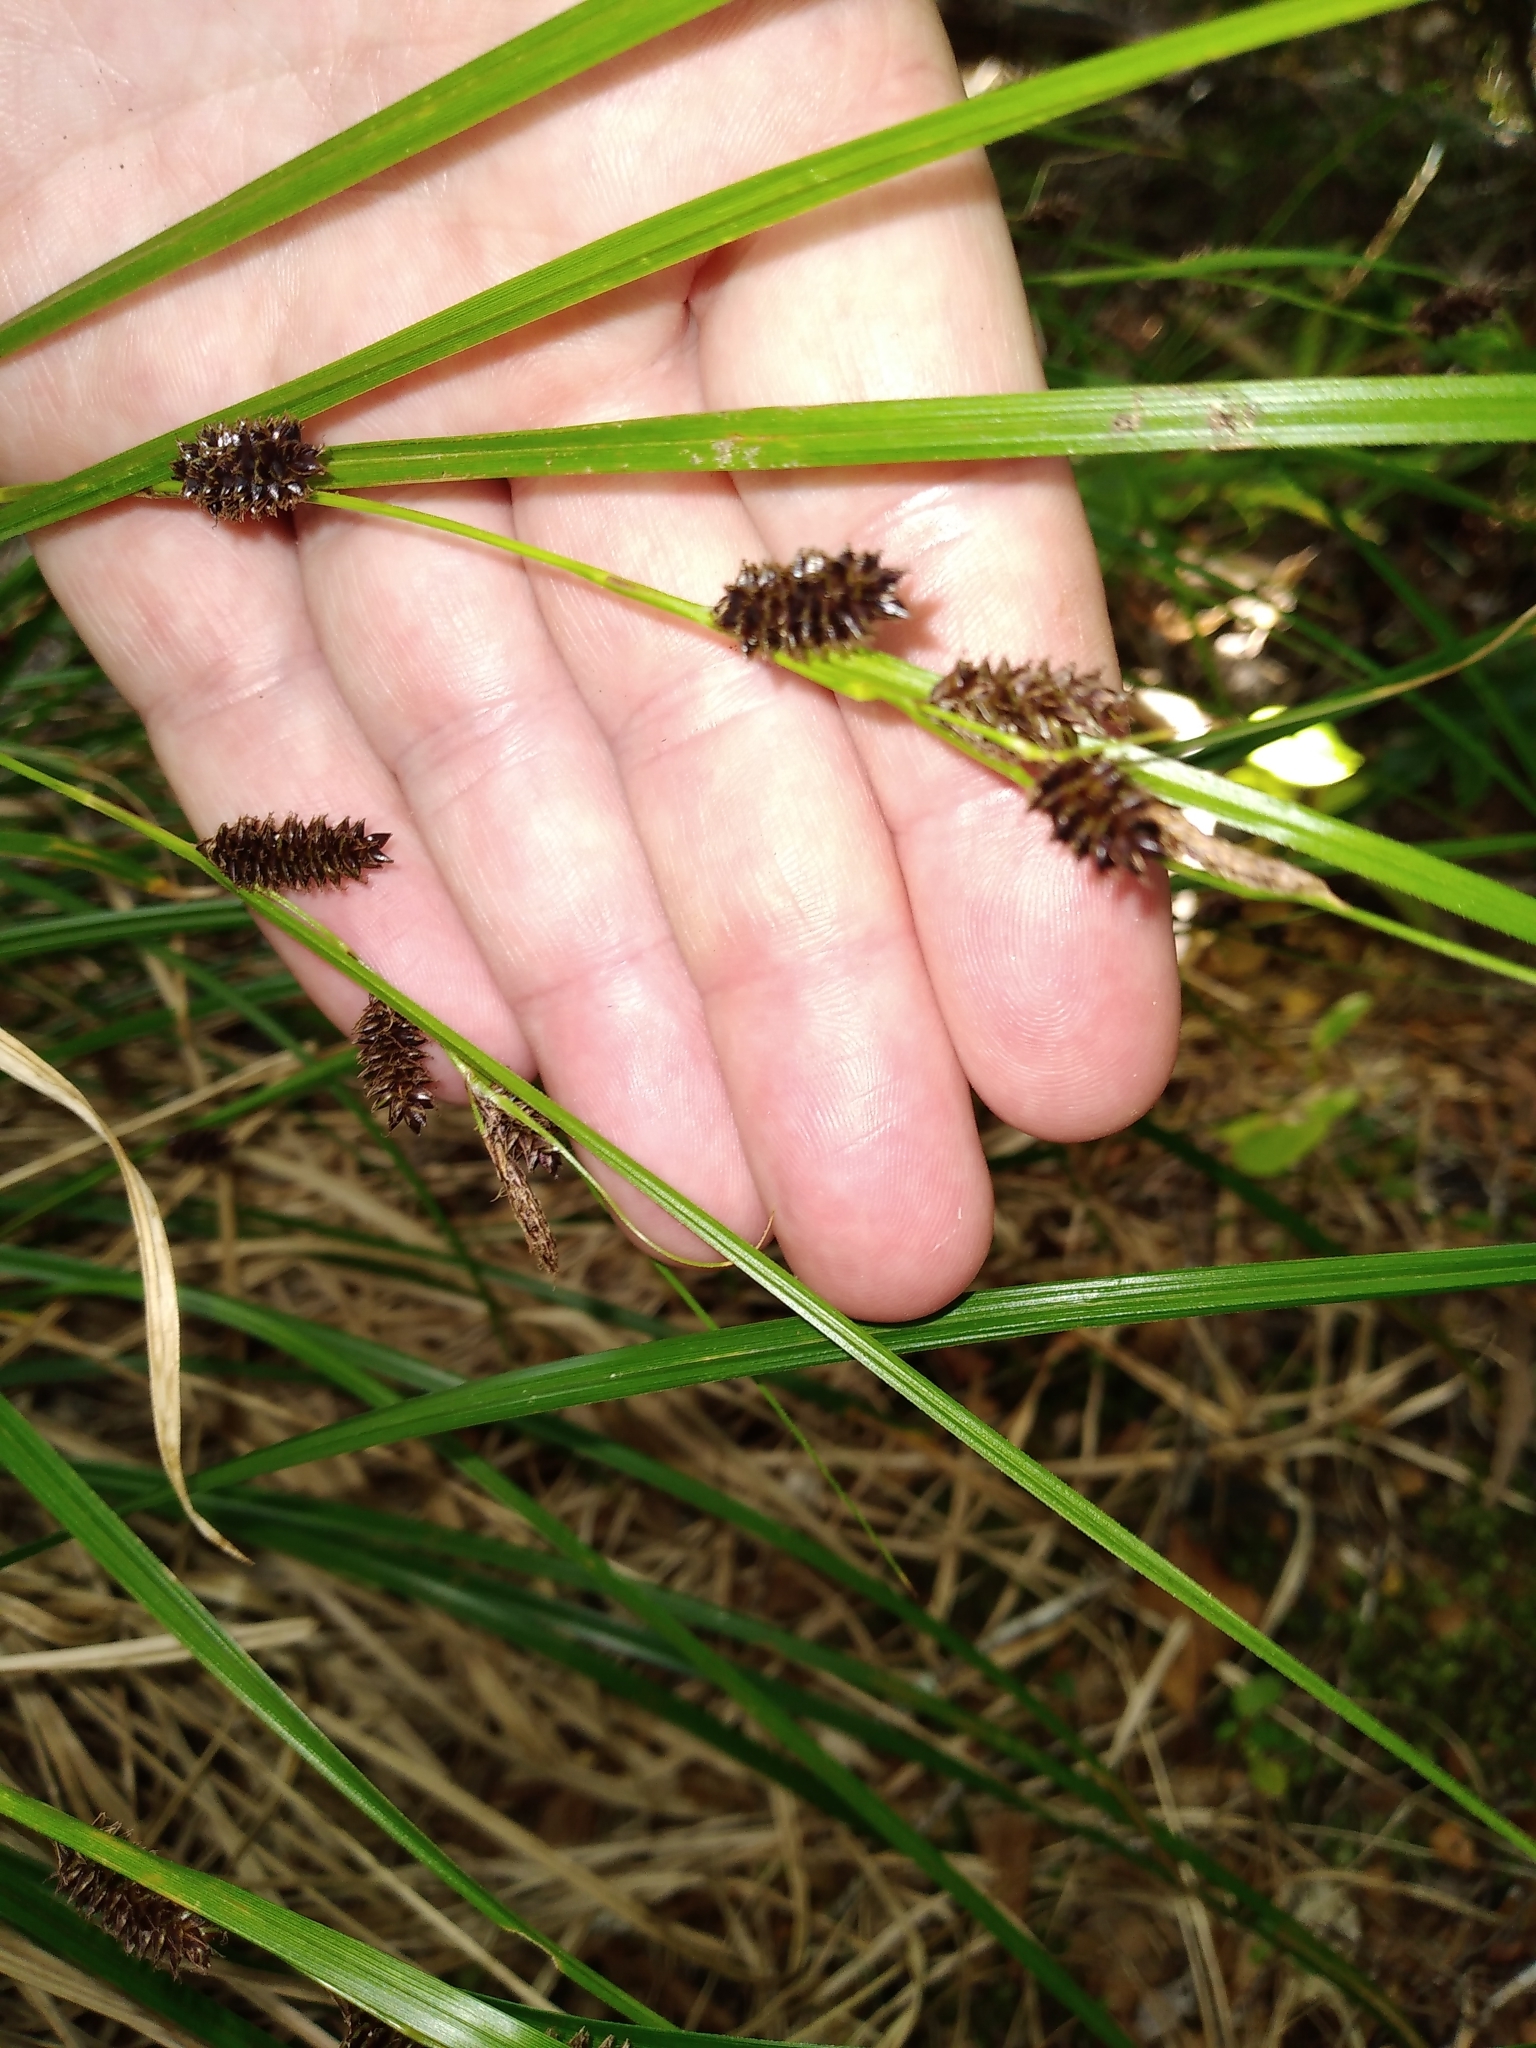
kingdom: Plantae
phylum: Tracheophyta
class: Liliopsida
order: Poales
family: Cyperaceae
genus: Carex
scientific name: Carex dissita
